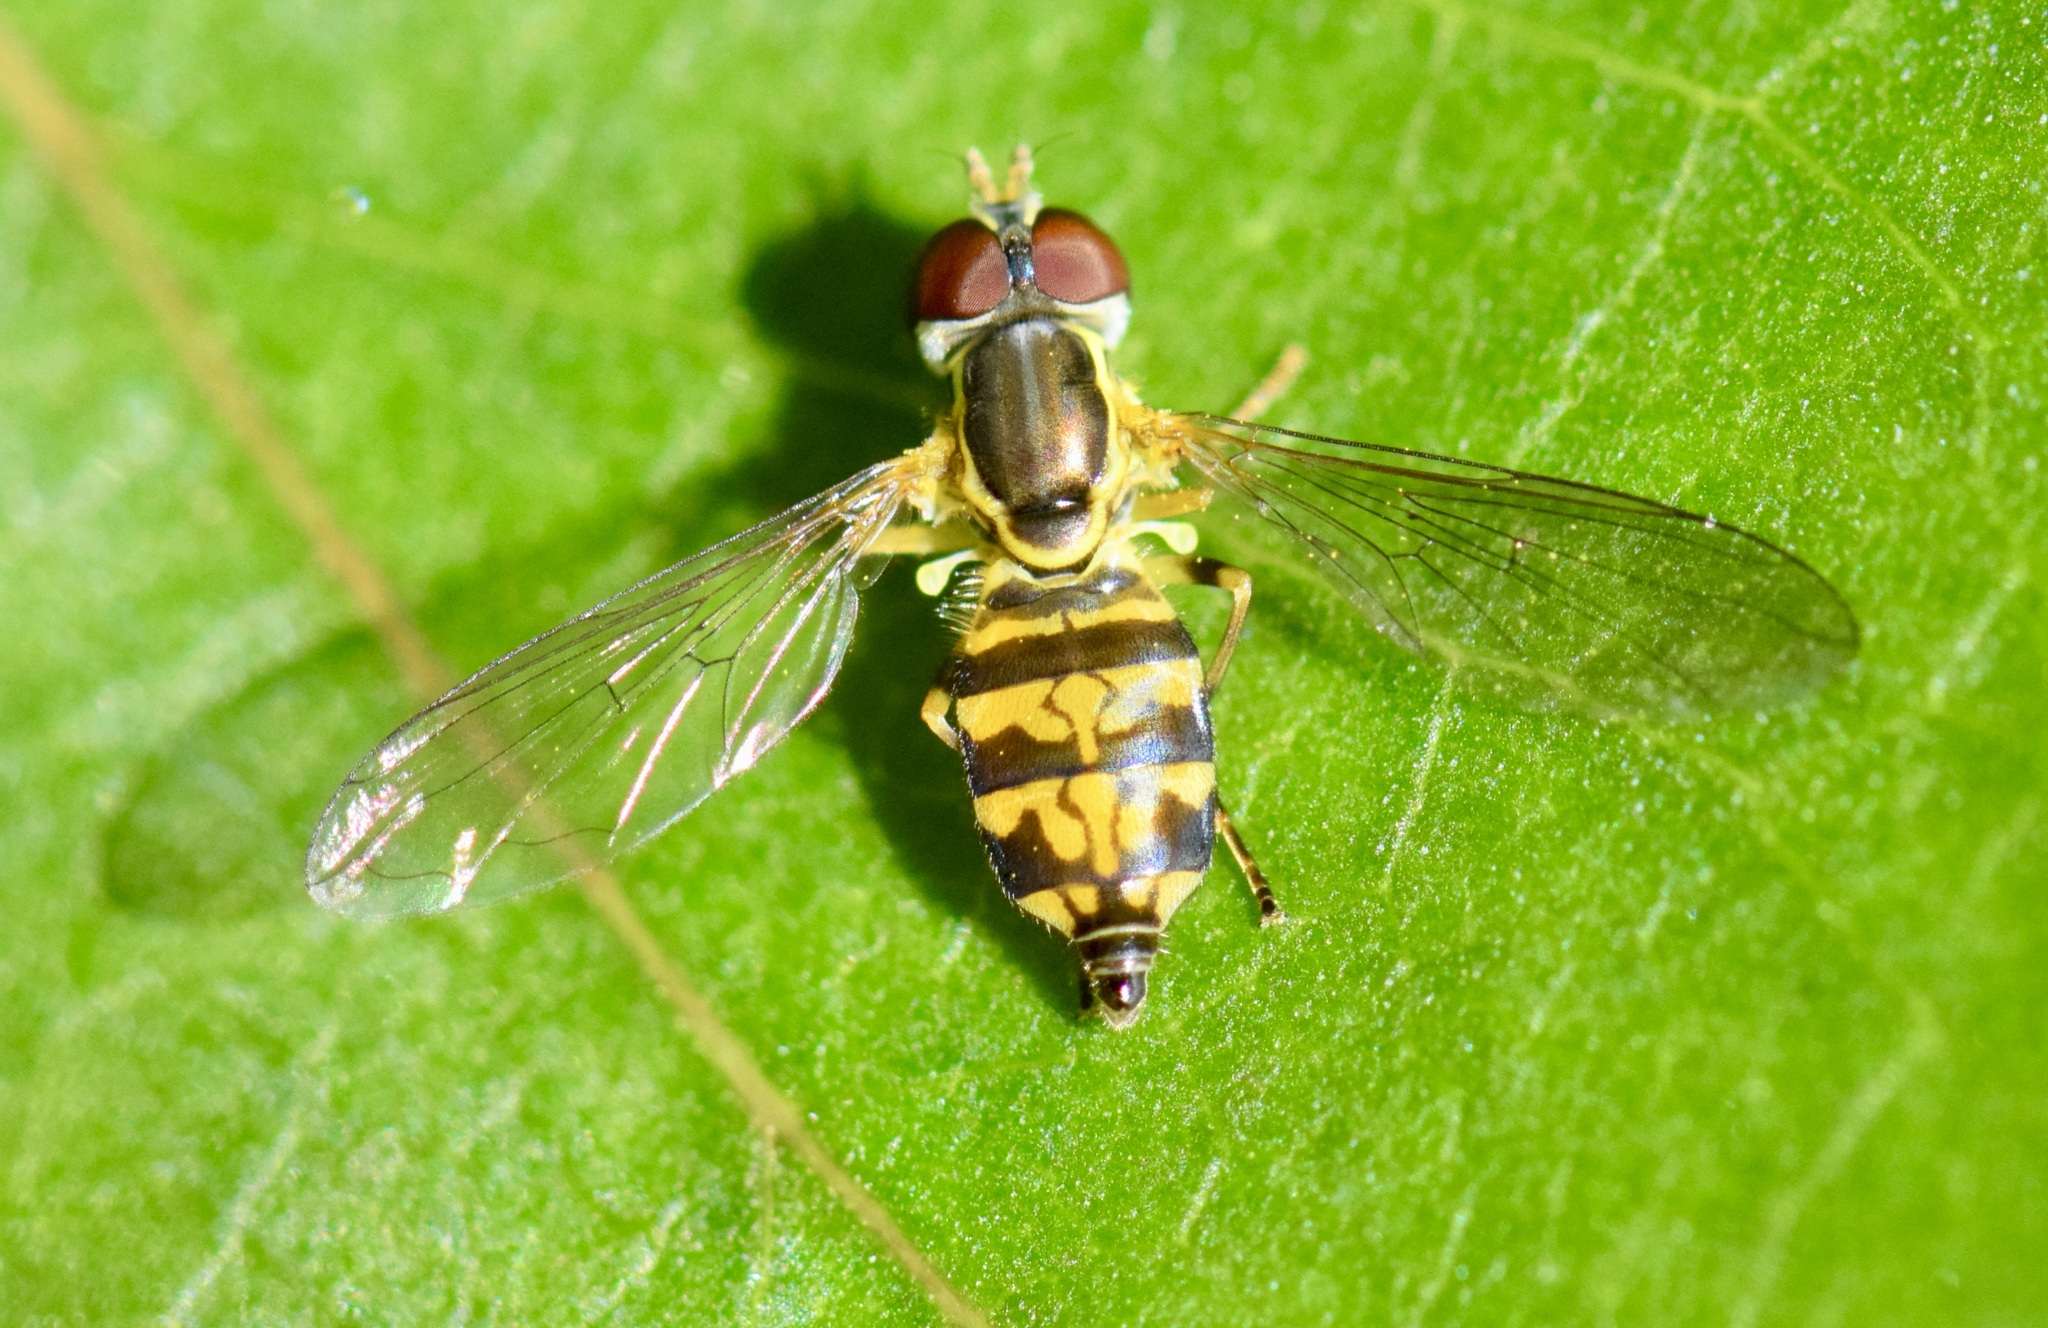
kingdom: Animalia
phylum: Arthropoda
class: Insecta
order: Diptera
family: Syrphidae
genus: Toxomerus
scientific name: Toxomerus geminatus
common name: Eastern calligrapher
